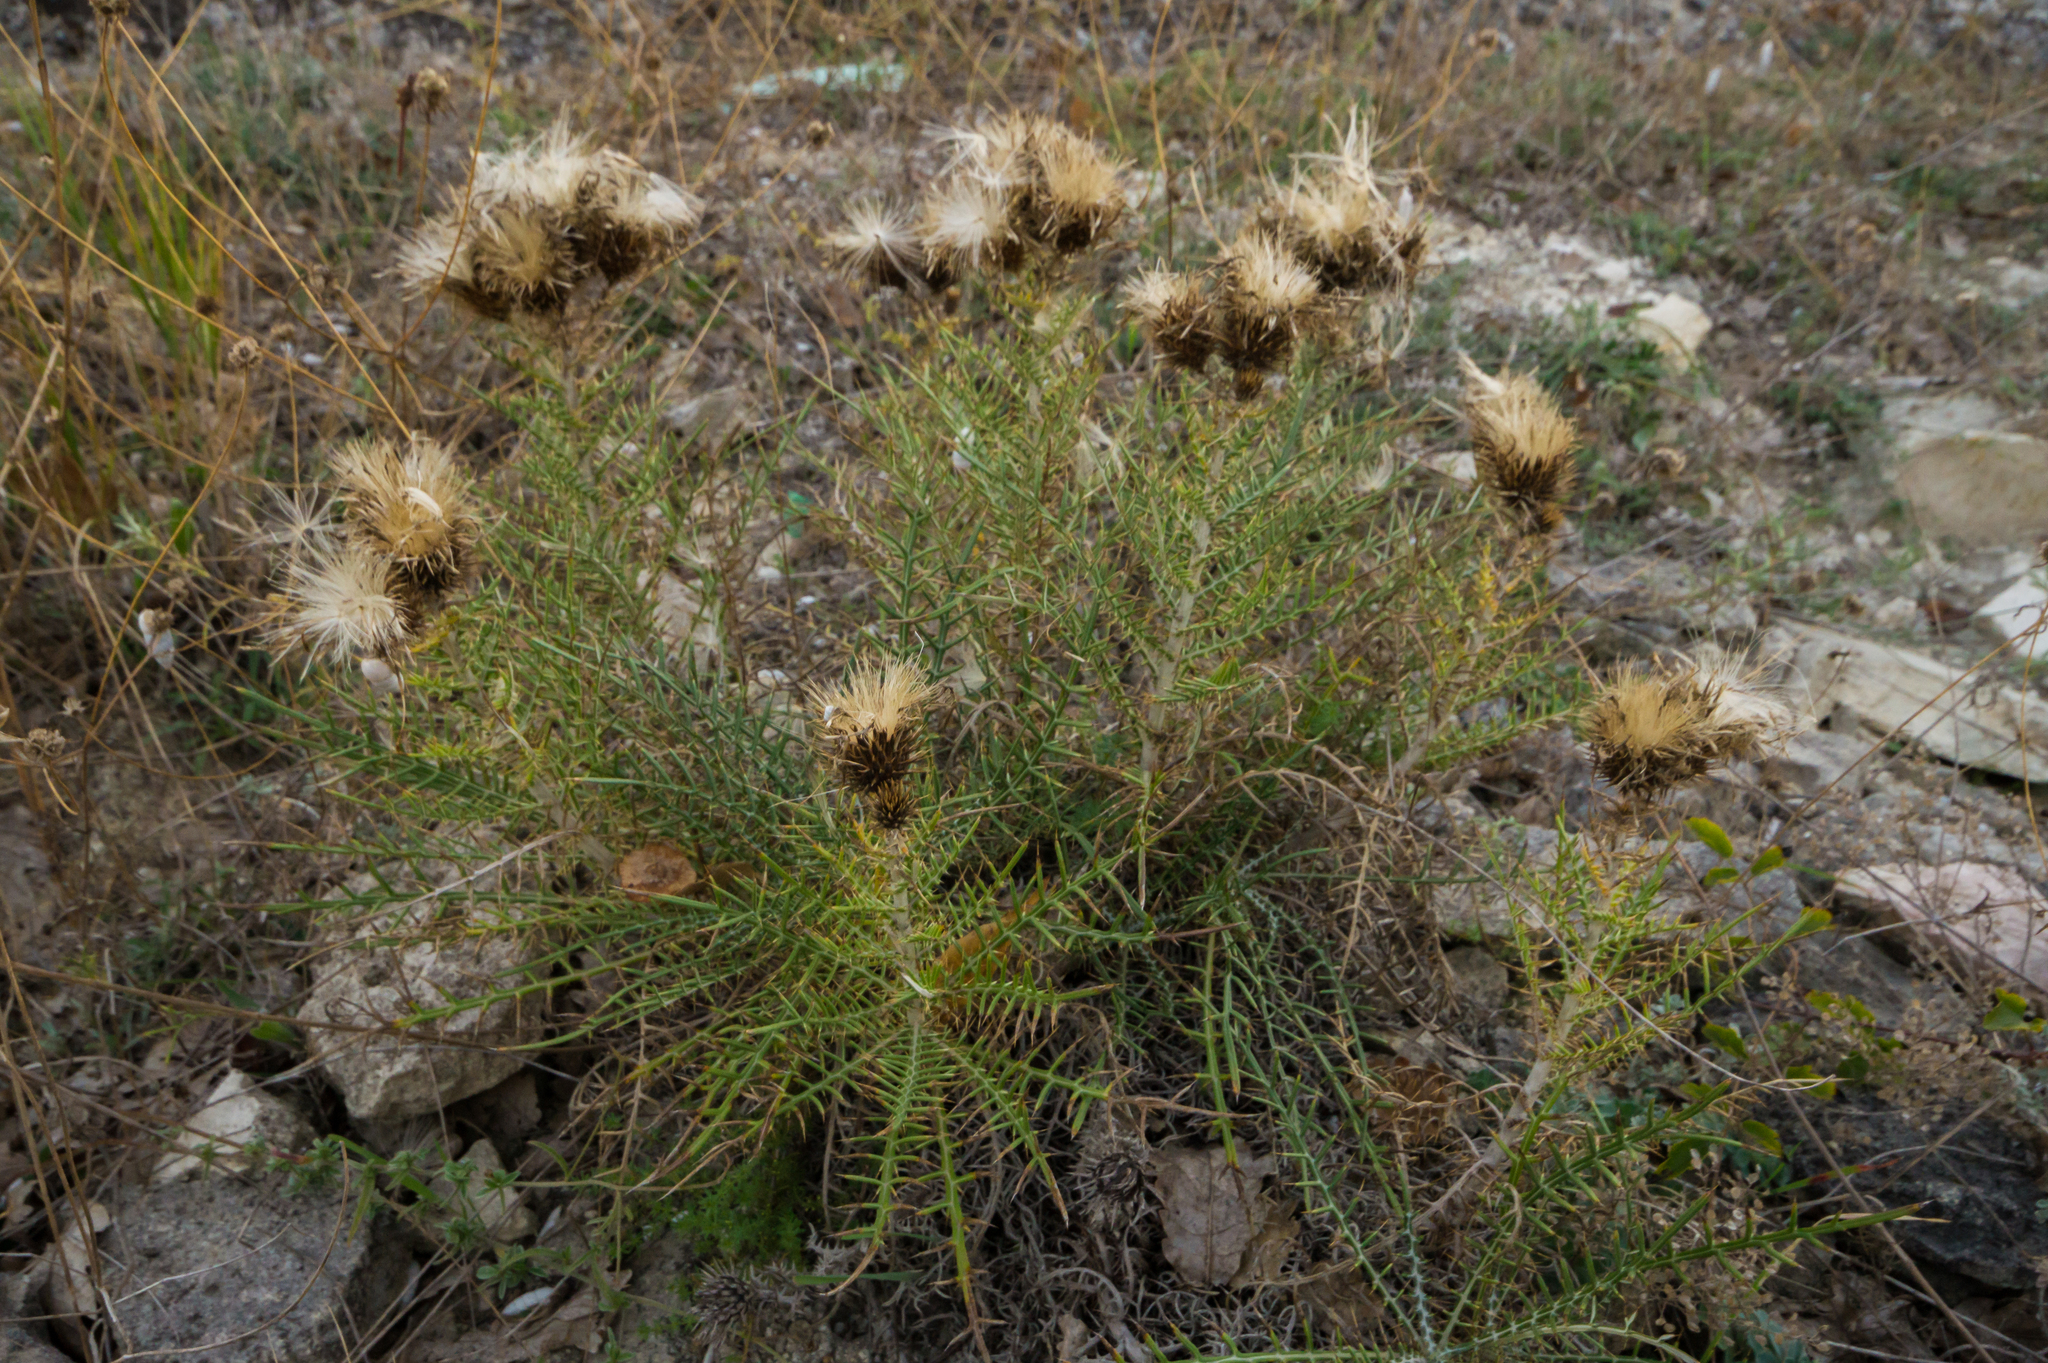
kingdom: Plantae
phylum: Tracheophyta
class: Magnoliopsida
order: Asterales
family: Asteraceae
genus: Ptilostemon
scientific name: Ptilostemon echinocephalus
